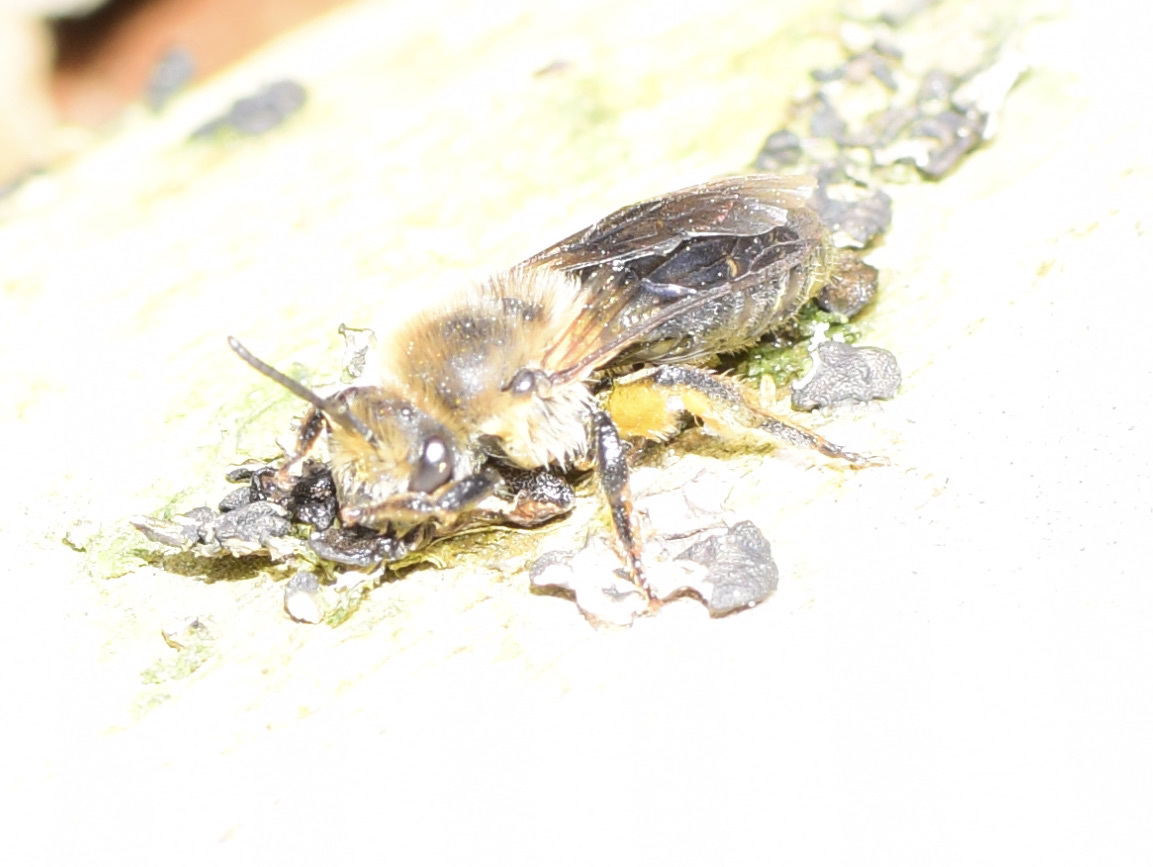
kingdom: Animalia
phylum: Arthropoda
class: Insecta
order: Hymenoptera
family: Colletidae
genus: Colletes
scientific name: Colletes inaequalis
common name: Unequal cellophane bee
